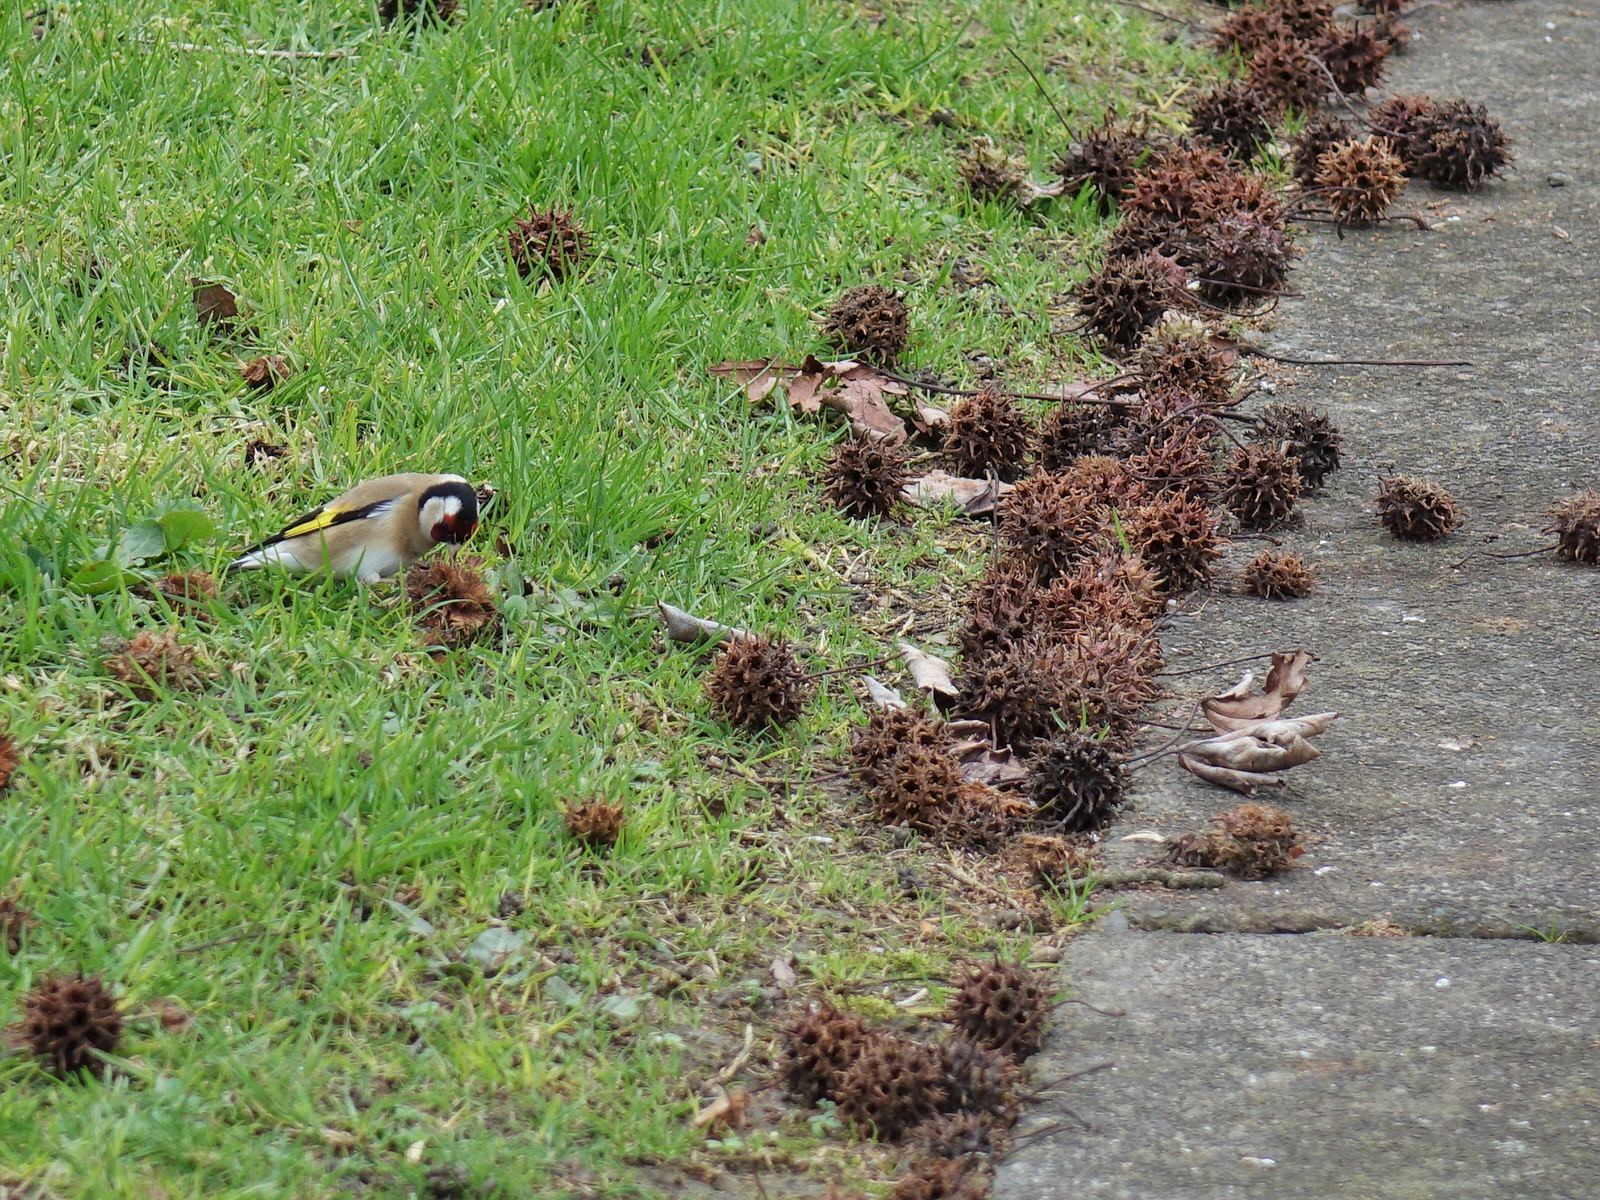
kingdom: Animalia
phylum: Chordata
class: Aves
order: Passeriformes
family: Fringillidae
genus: Carduelis
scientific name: Carduelis carduelis
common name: European goldfinch
